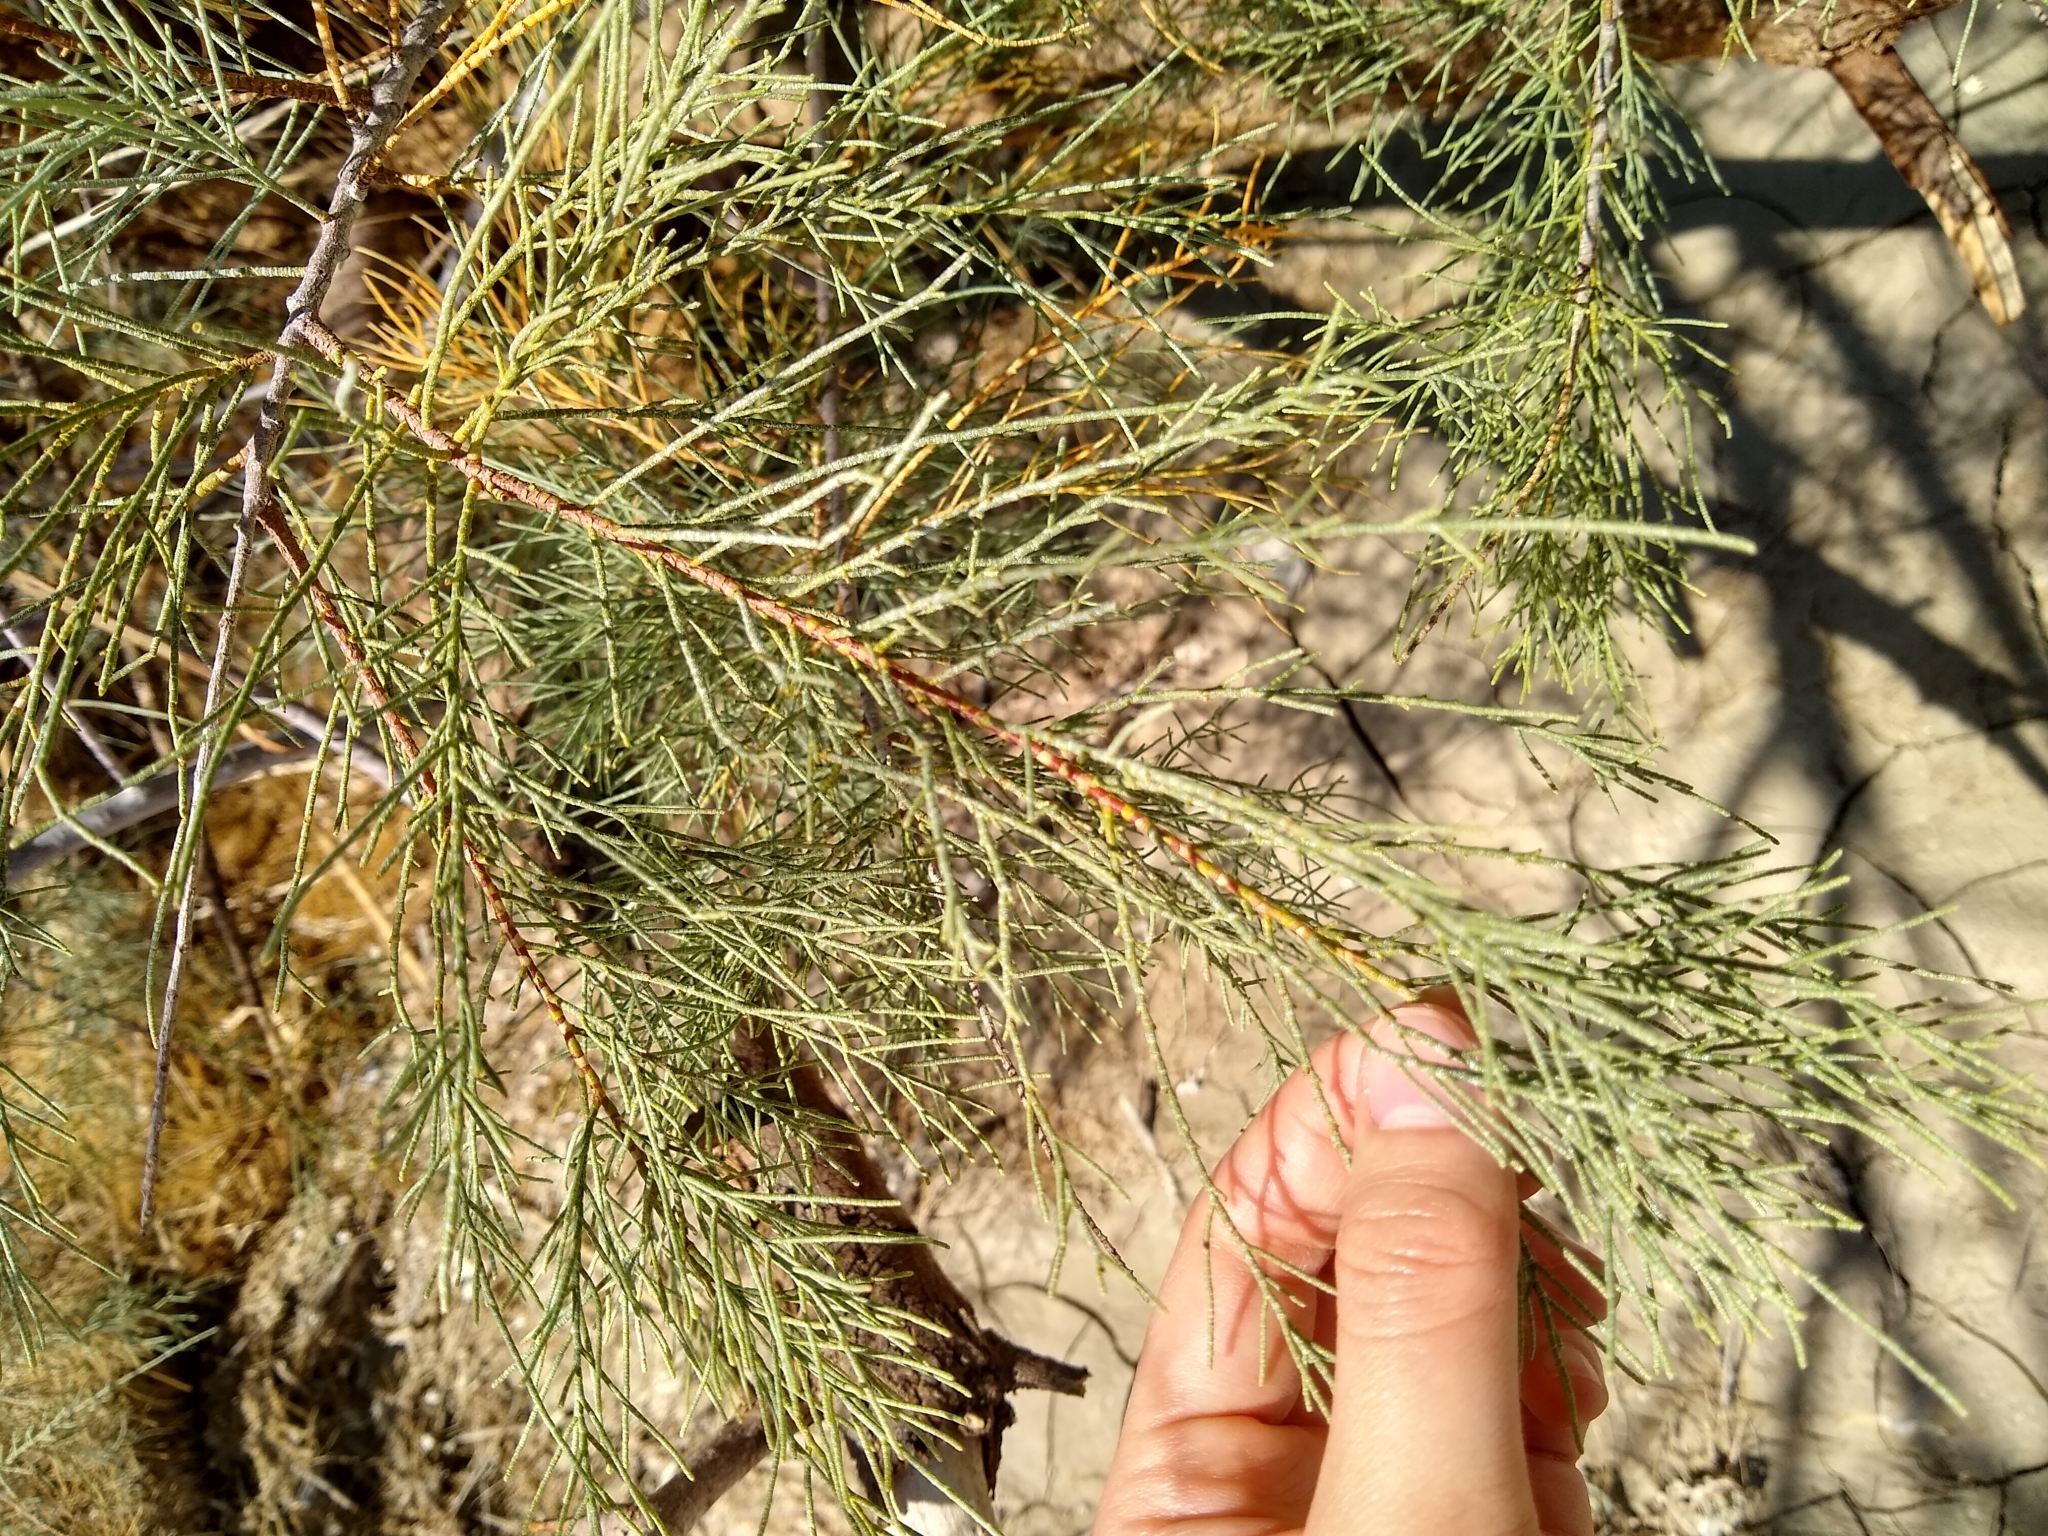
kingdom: Plantae
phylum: Tracheophyta
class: Magnoliopsida
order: Caryophyllales
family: Tamaricaceae
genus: Tamarix
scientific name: Tamarix aphylla
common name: Athel tamarisk
